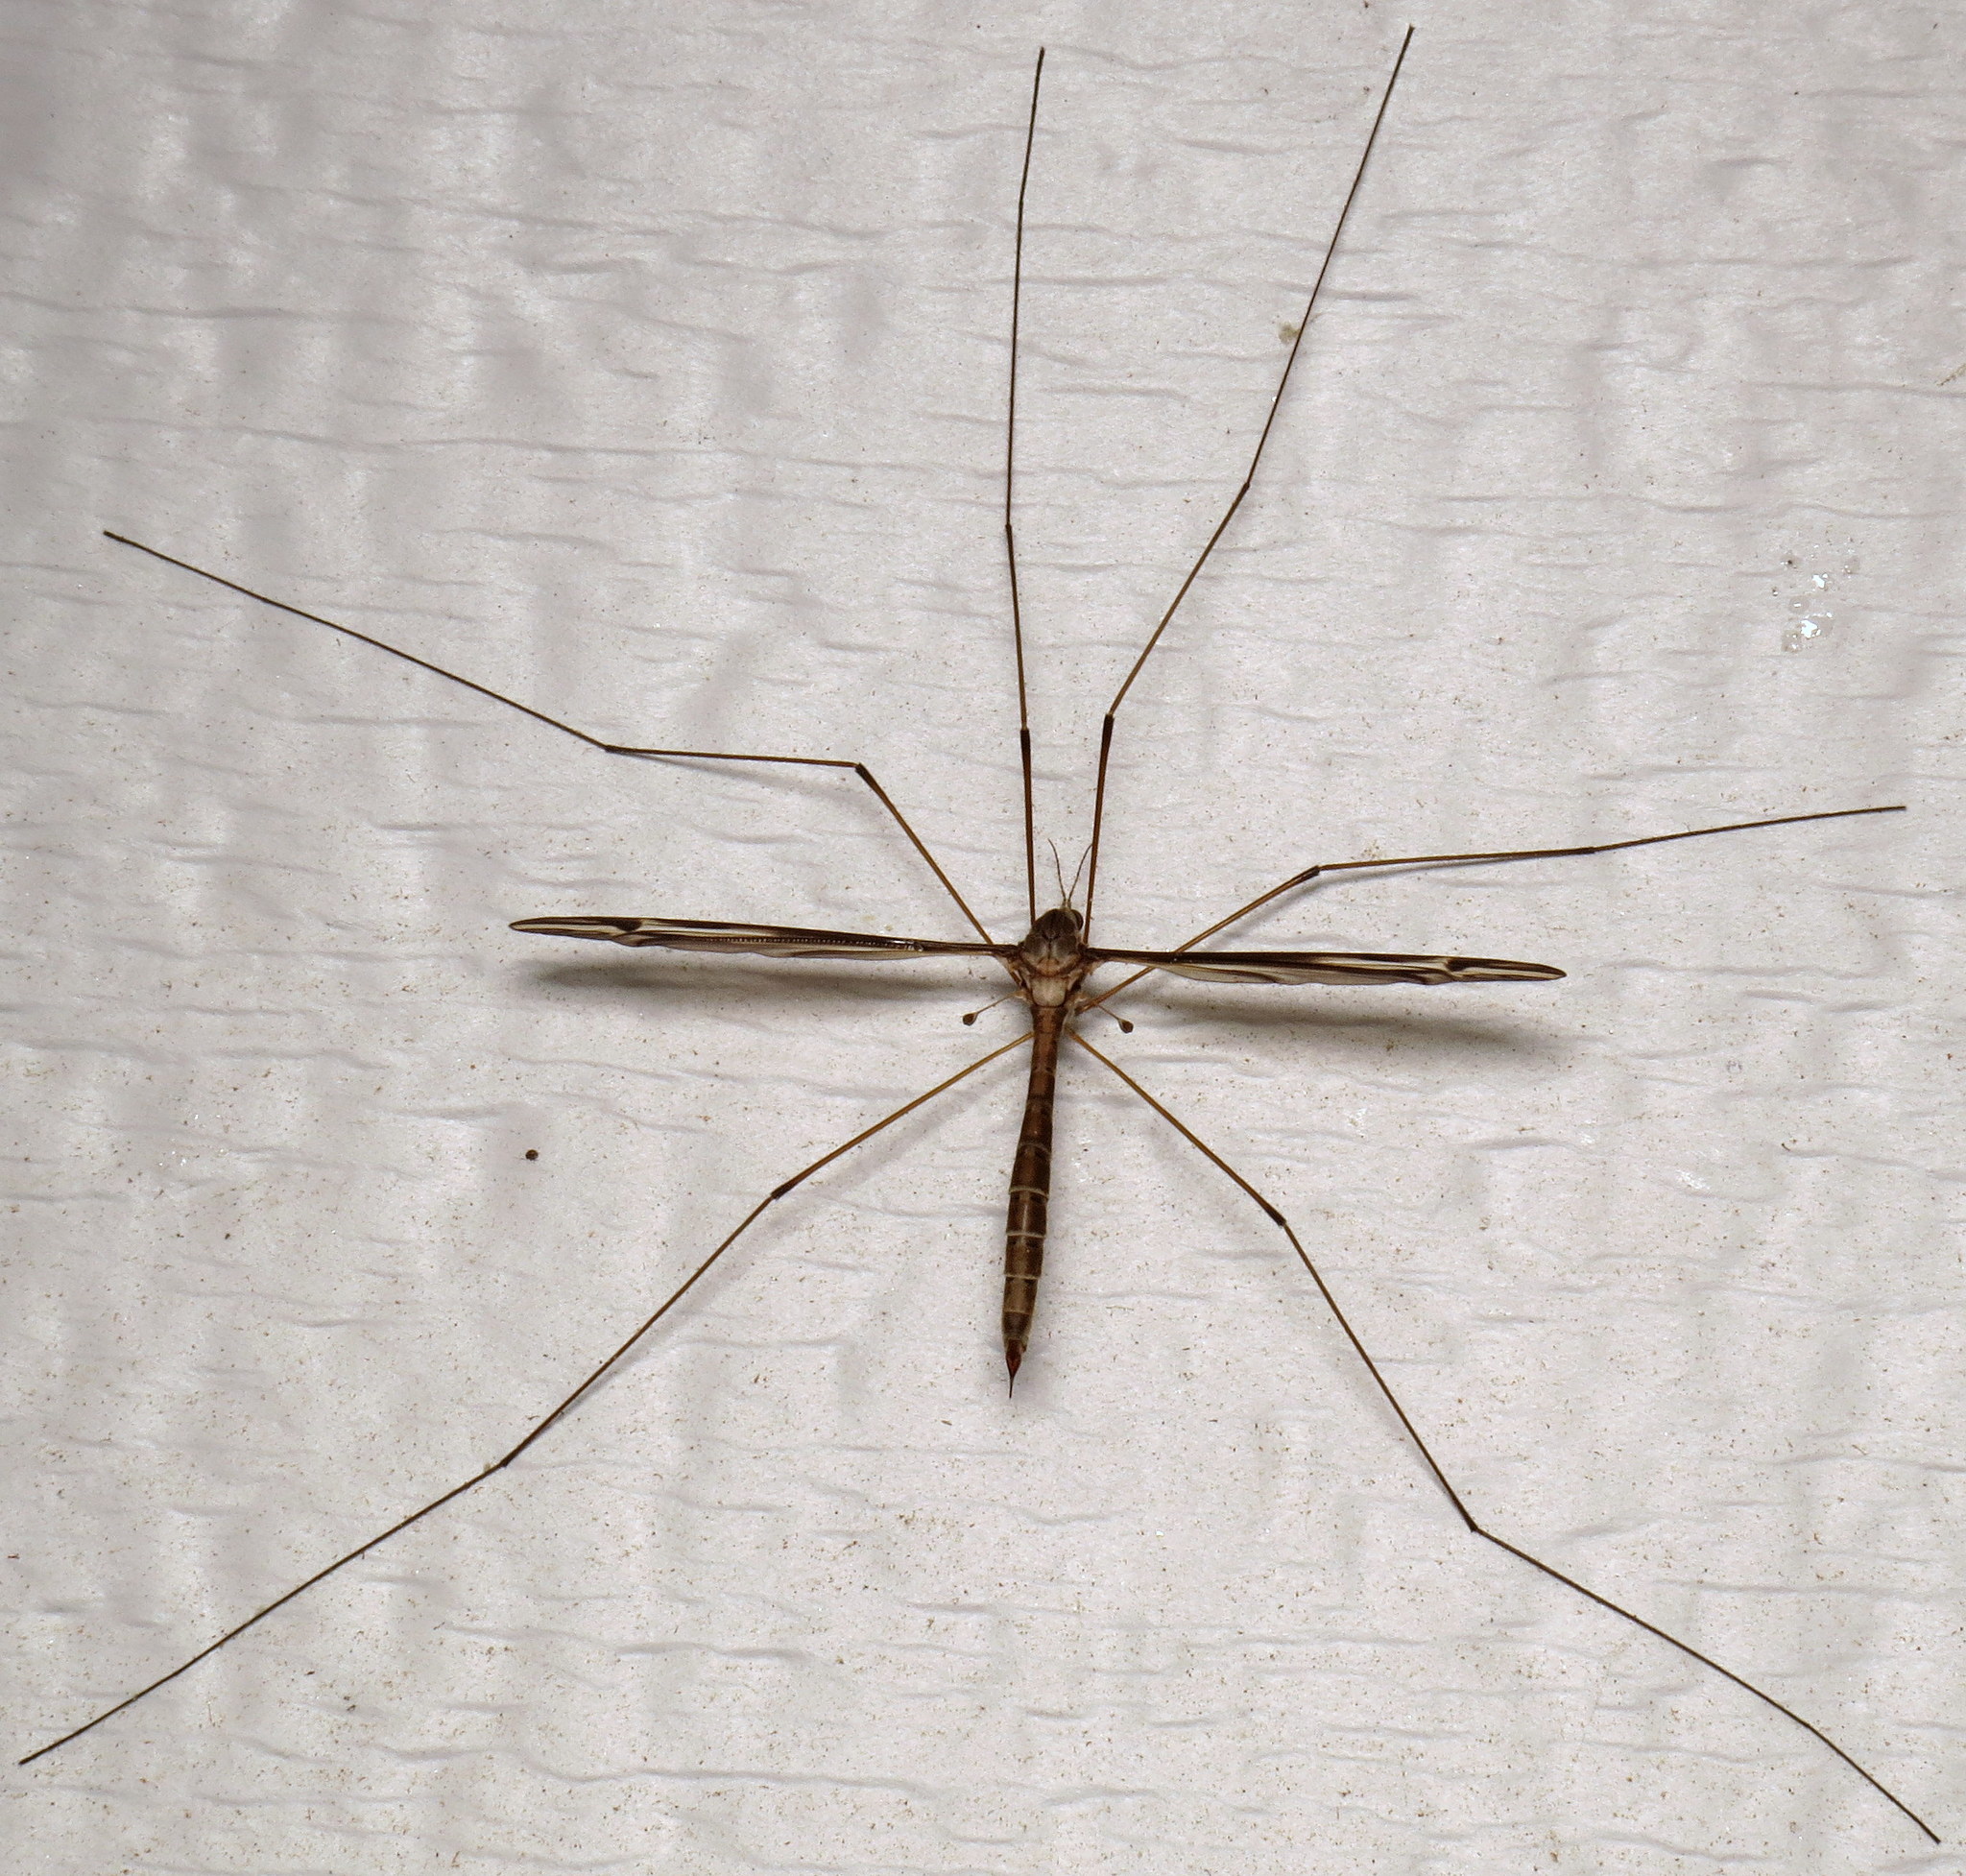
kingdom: Animalia
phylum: Arthropoda
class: Insecta
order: Diptera
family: Tipulidae
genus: Tipula
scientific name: Tipula furca
